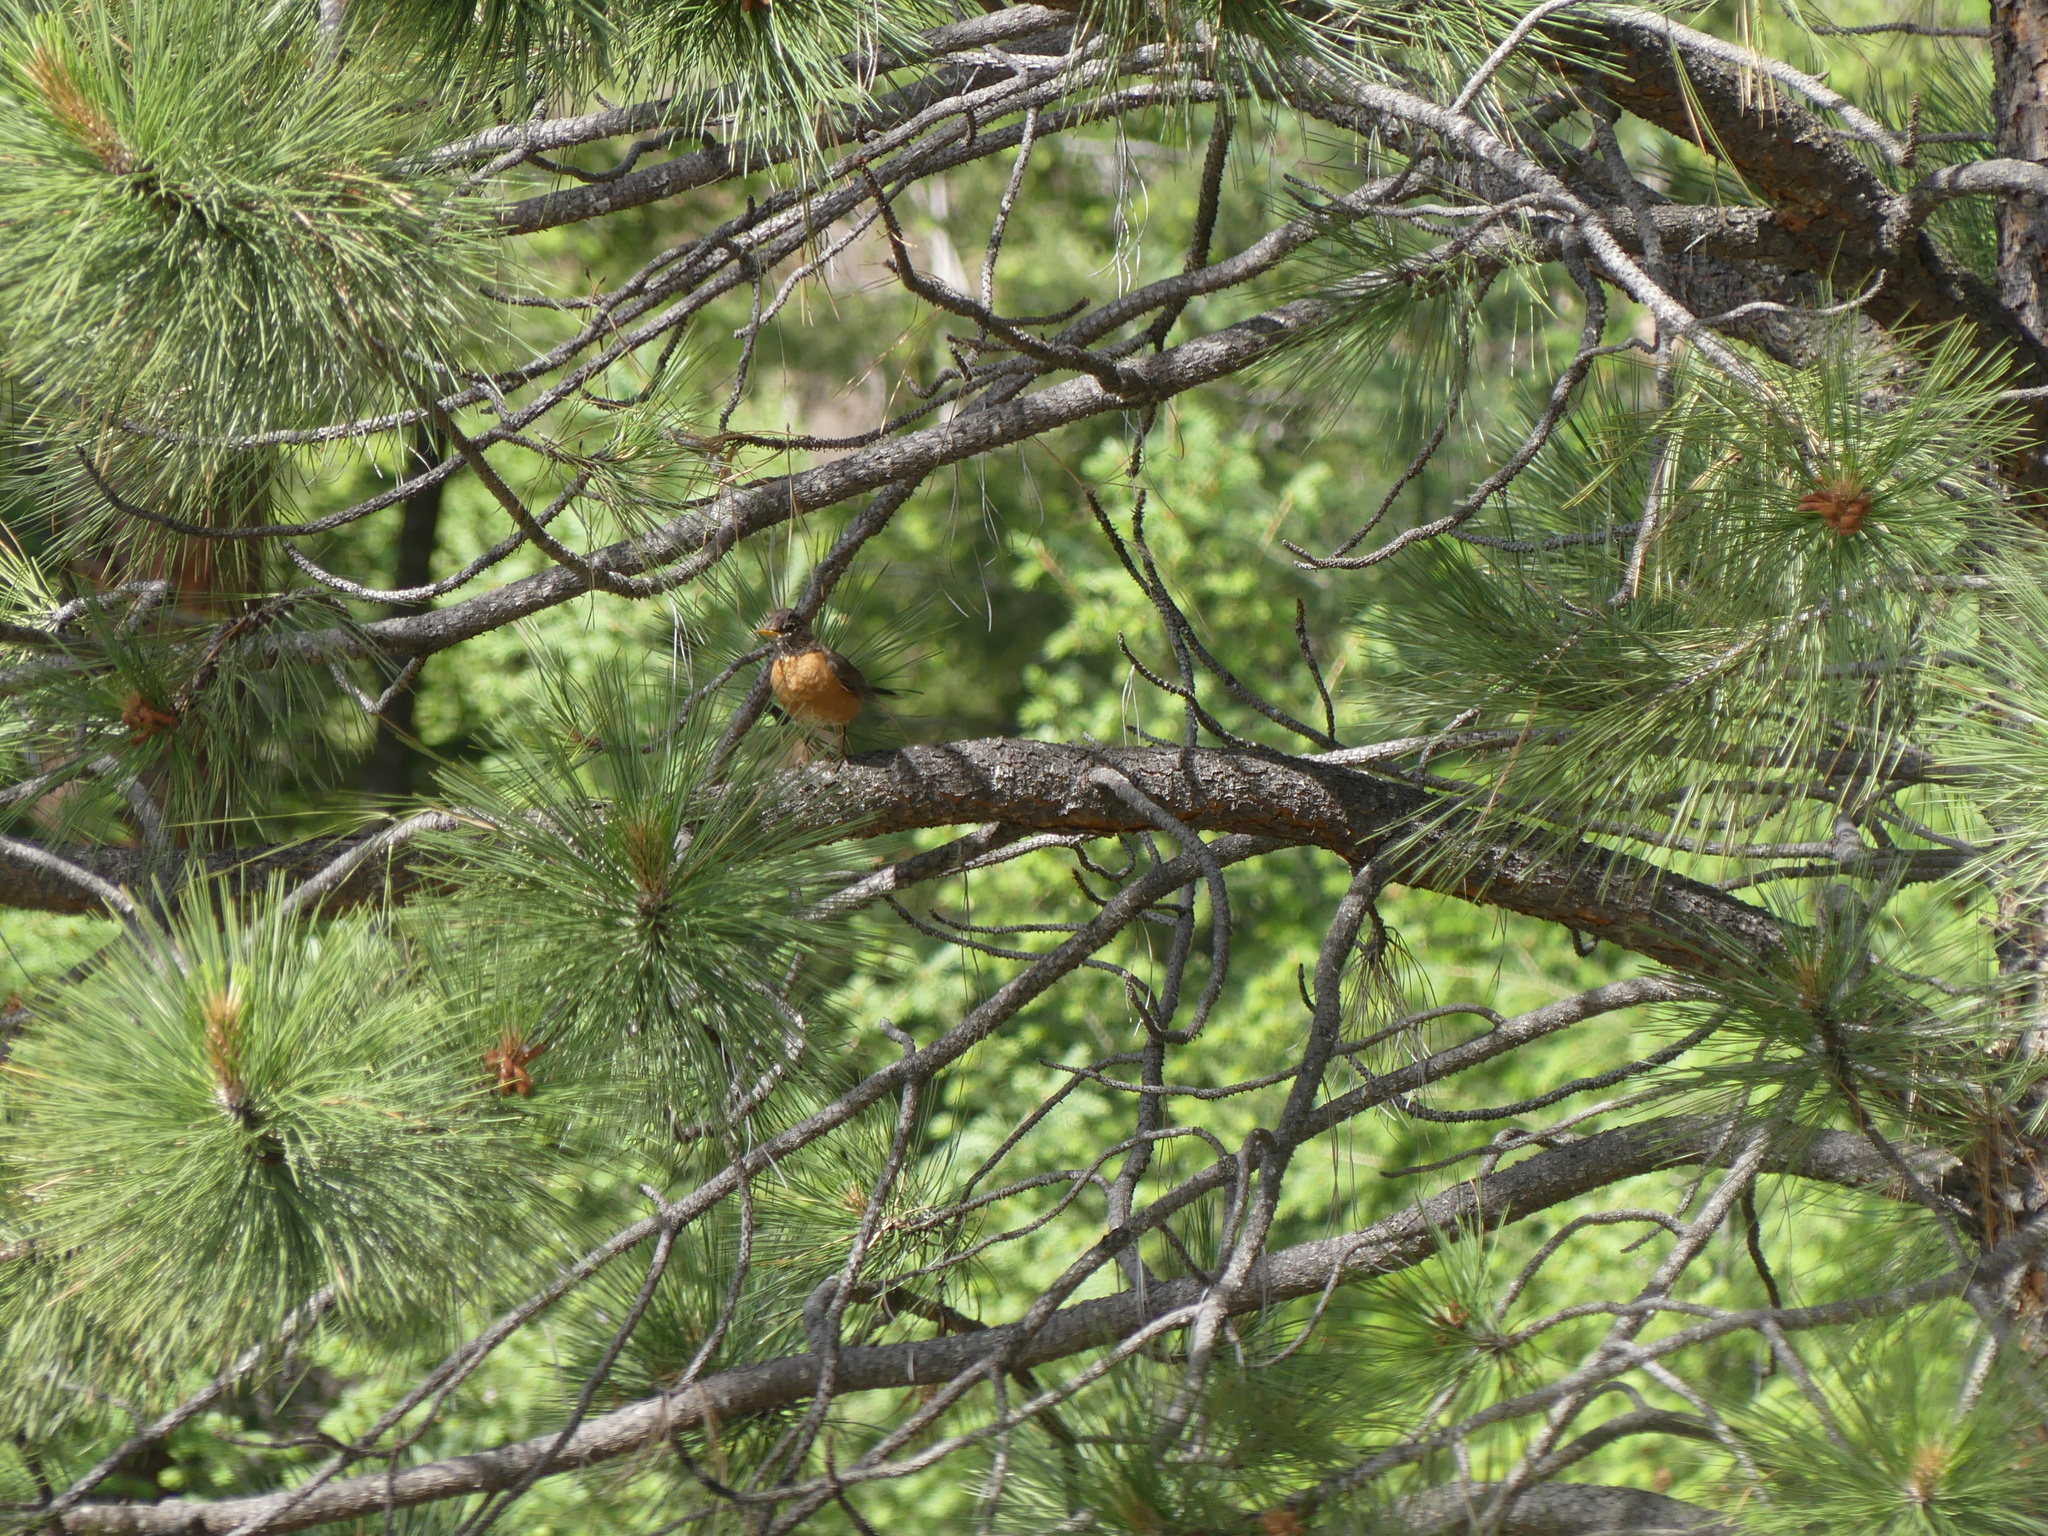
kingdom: Animalia
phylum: Chordata
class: Aves
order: Passeriformes
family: Turdidae
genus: Turdus
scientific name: Turdus migratorius
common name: American robin
